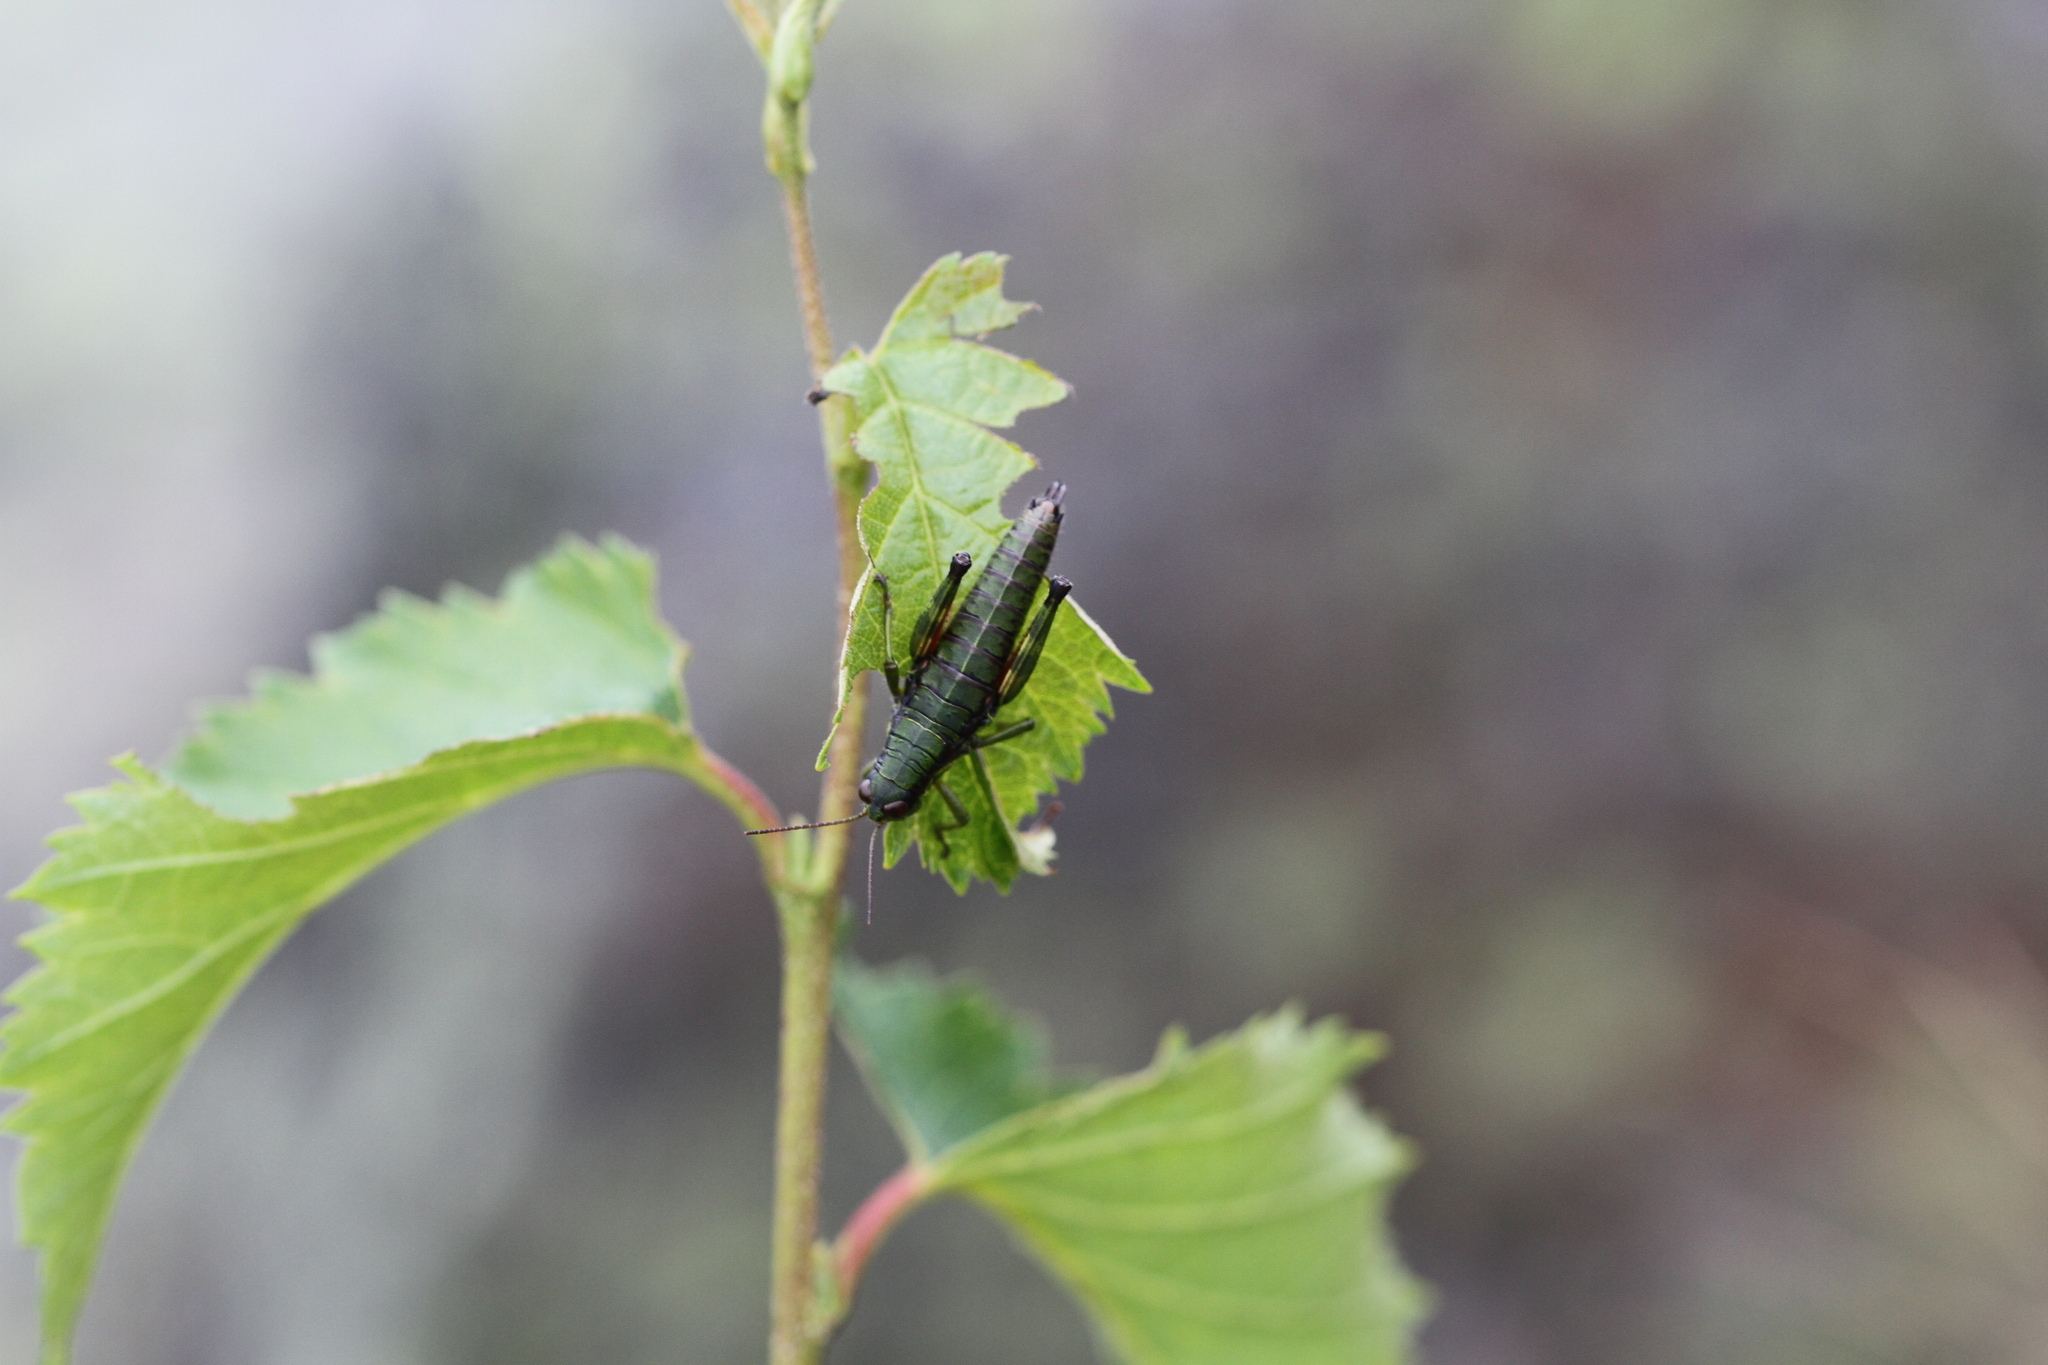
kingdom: Animalia
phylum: Arthropoda
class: Insecta
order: Orthoptera
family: Acrididae
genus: Booneacris
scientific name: Booneacris glacialis
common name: Wingless mountain grasshopper
